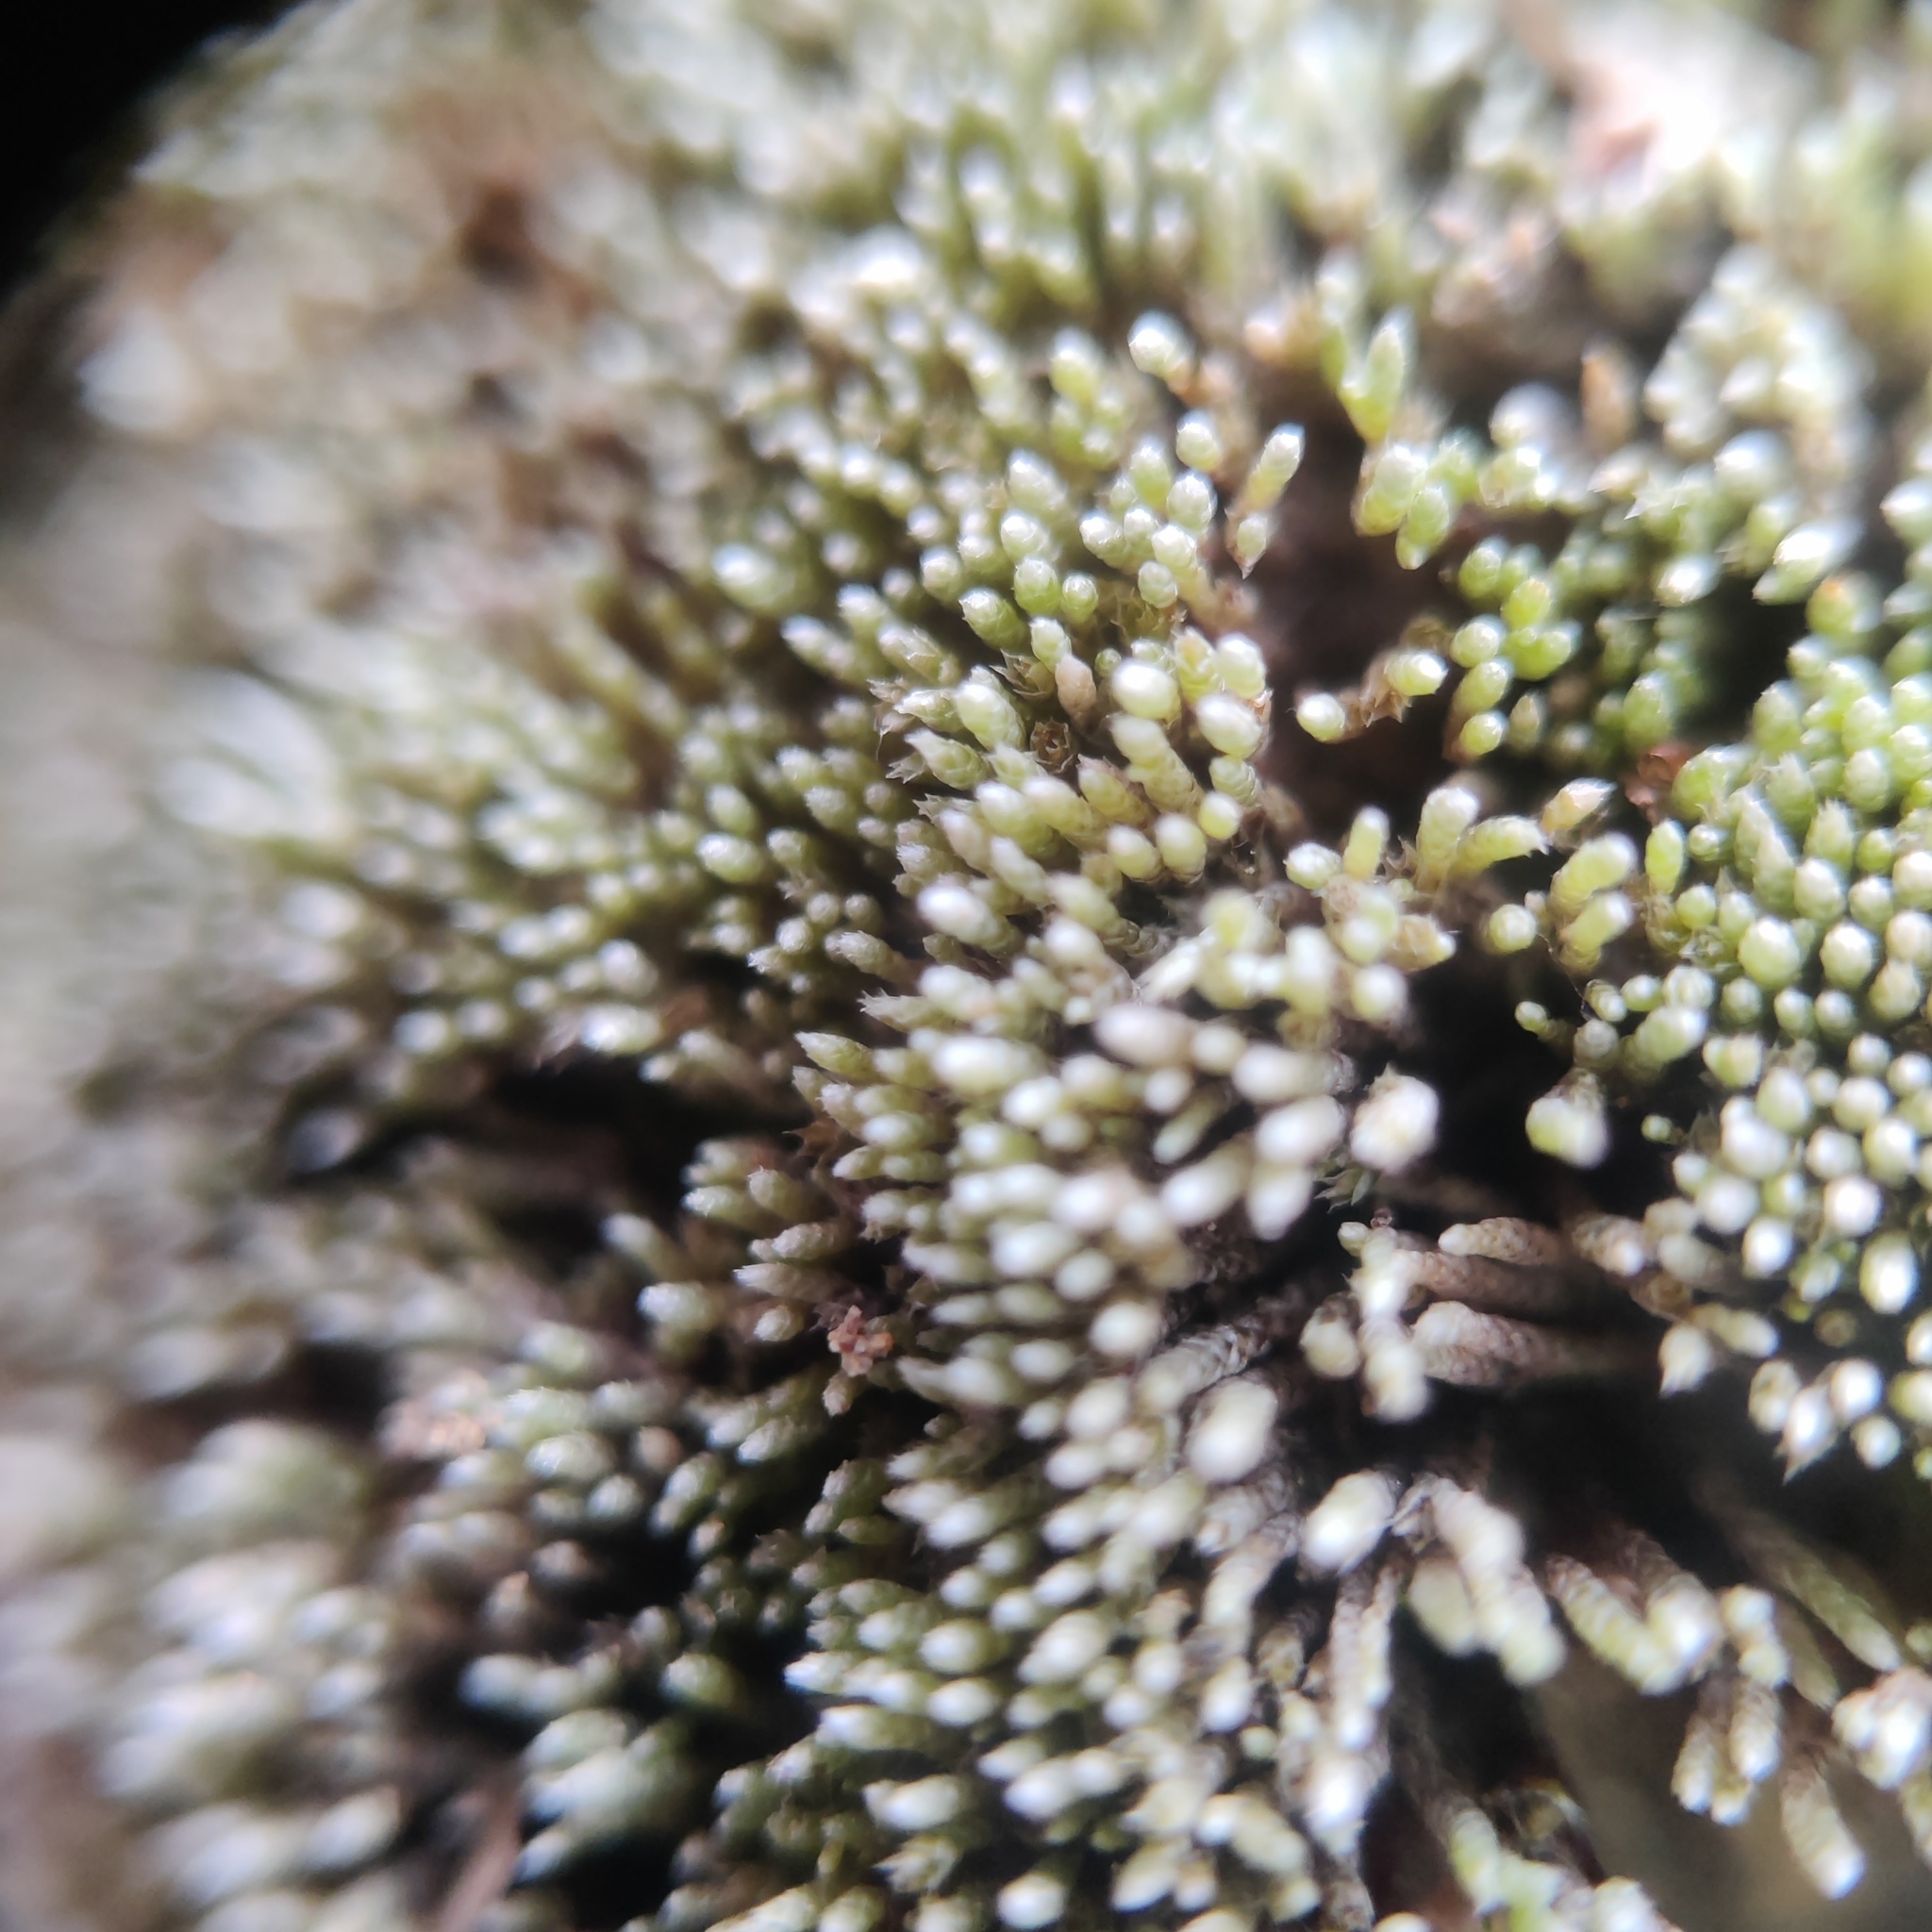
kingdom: Plantae
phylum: Bryophyta
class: Bryopsida
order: Bryales
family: Bryaceae
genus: Bryum
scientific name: Bryum argenteum
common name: Silver-moss
